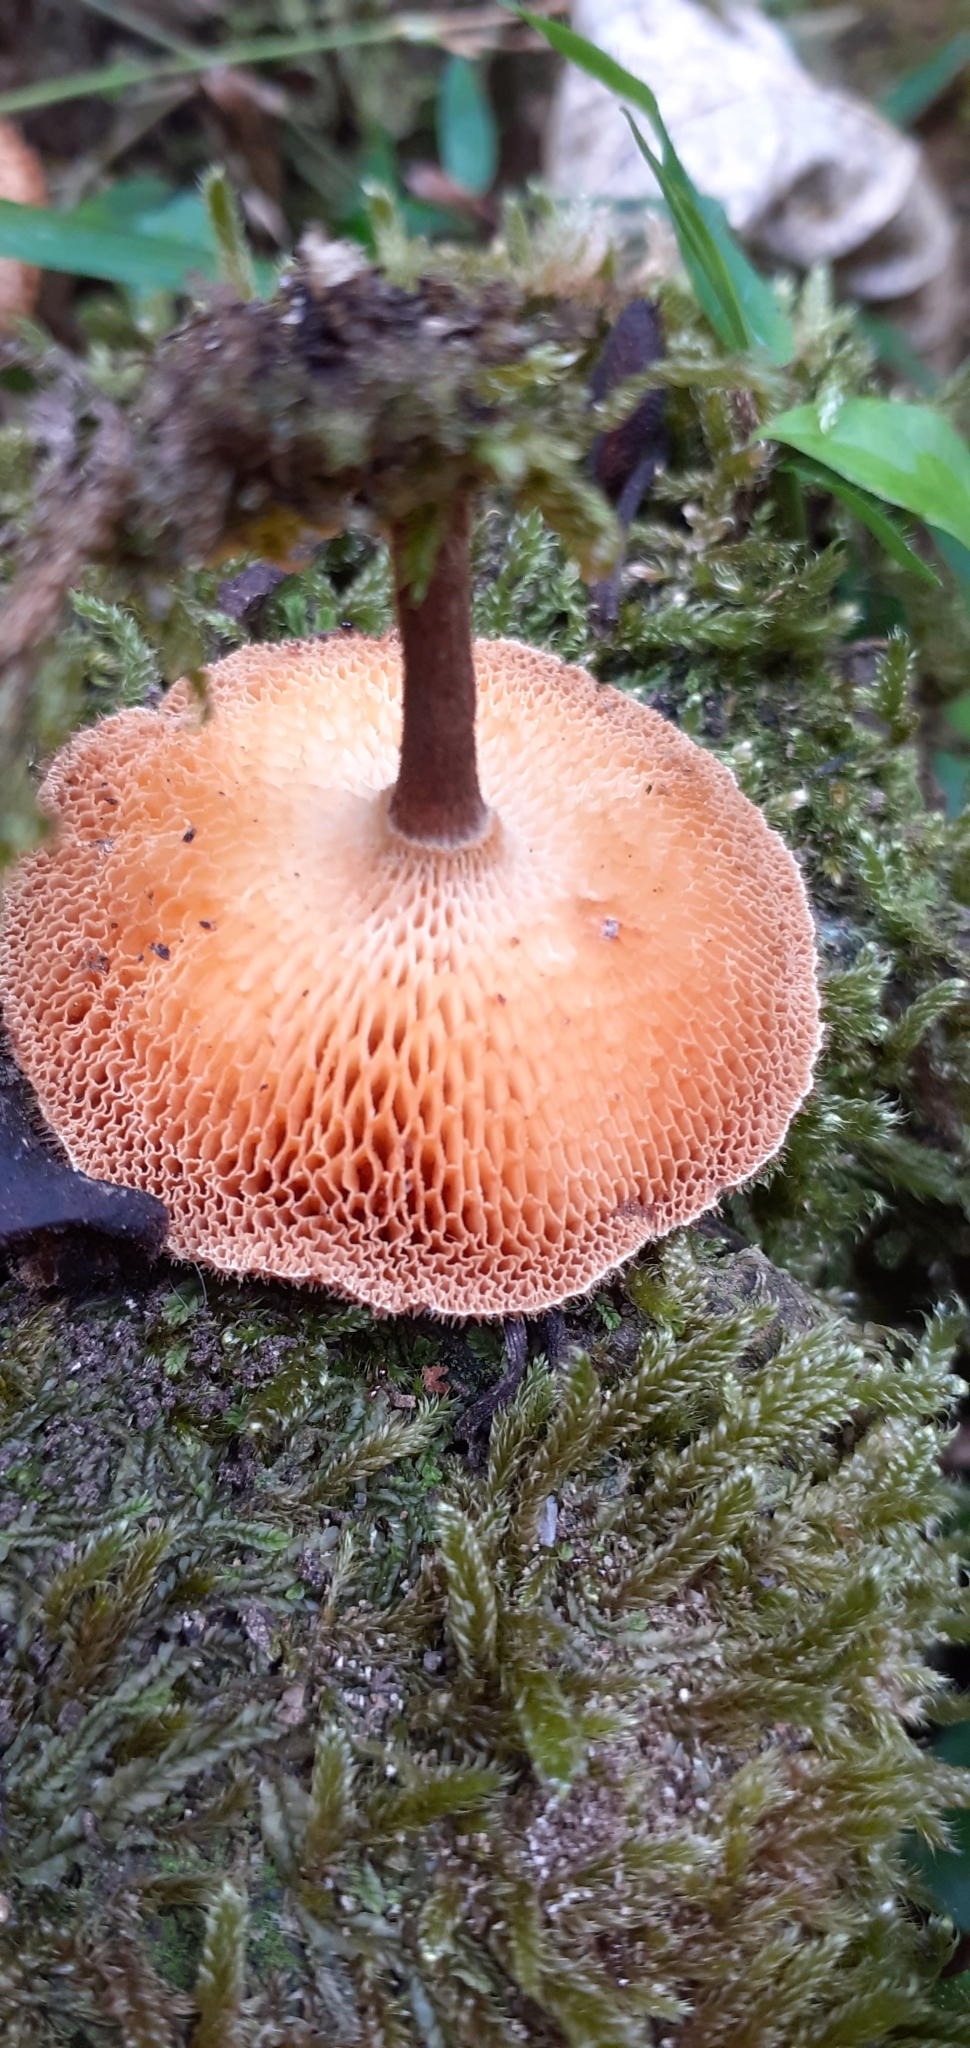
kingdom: Fungi
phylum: Basidiomycota
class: Agaricomycetes
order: Polyporales
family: Polyporaceae
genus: Lentinus
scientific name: Lentinus arcularius
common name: Spring polypore
